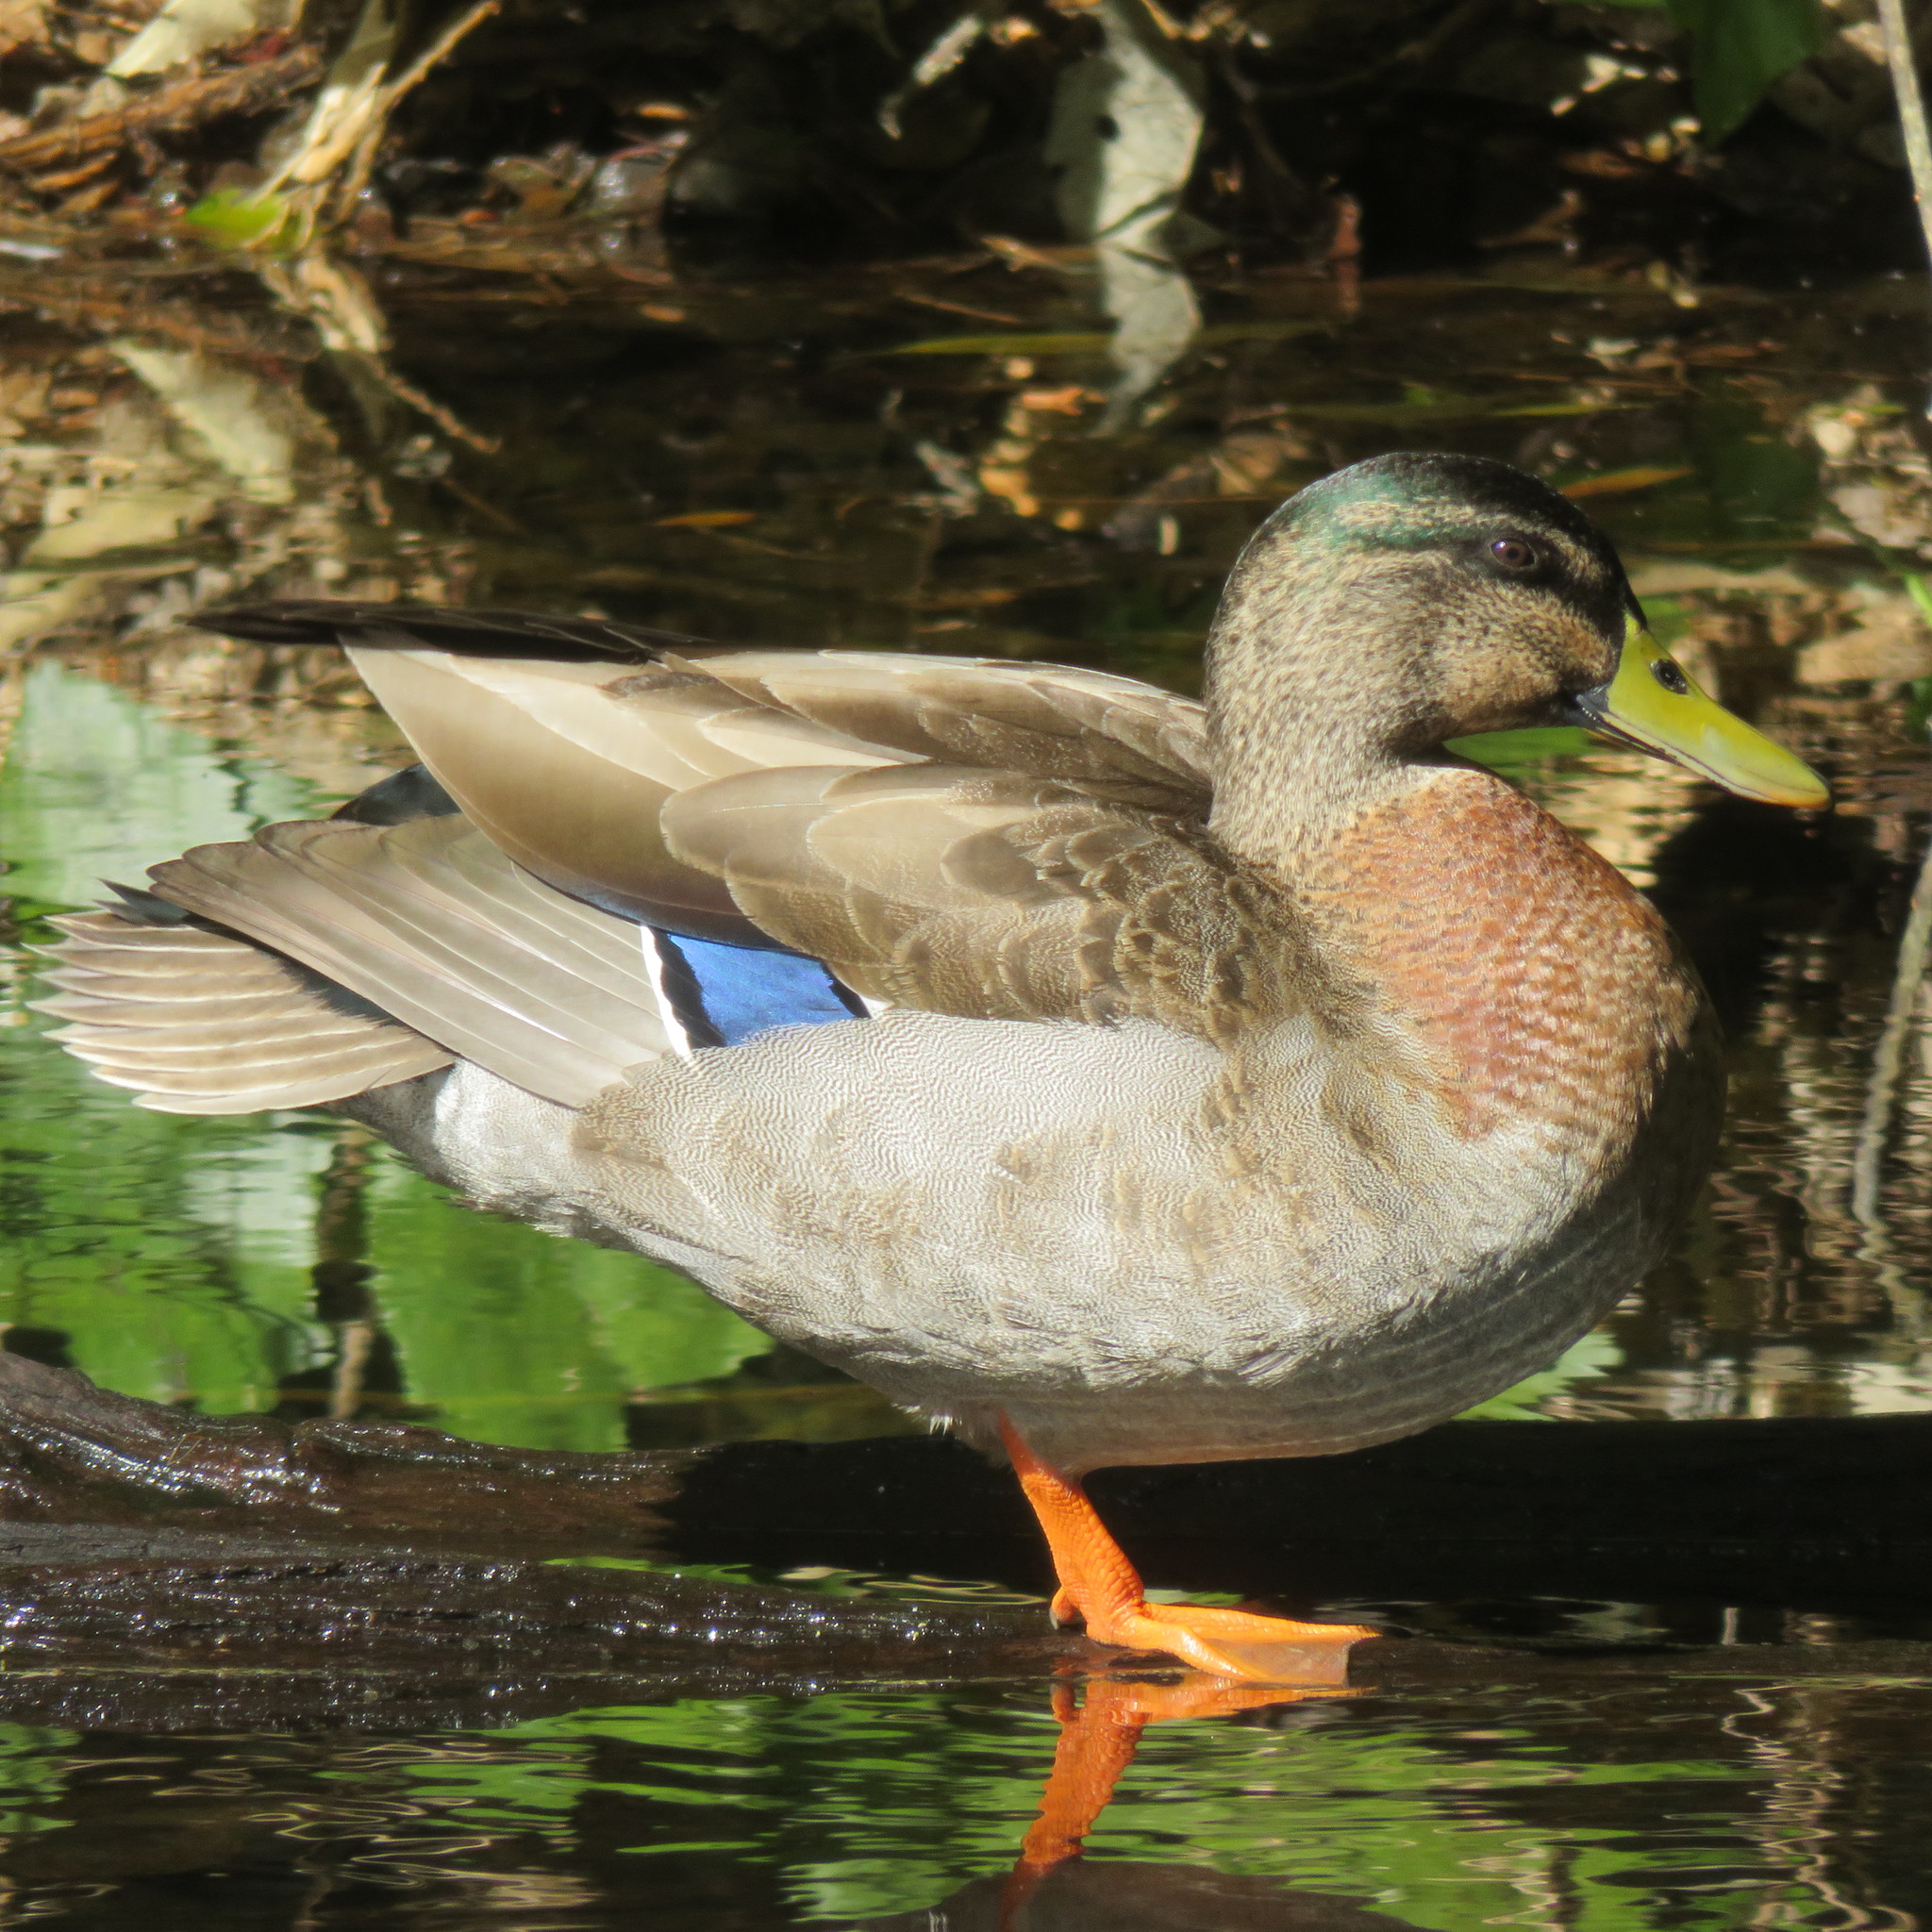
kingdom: Animalia
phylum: Chordata
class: Aves
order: Anseriformes
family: Anatidae
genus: Anas
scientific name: Anas platyrhynchos
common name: Mallard
